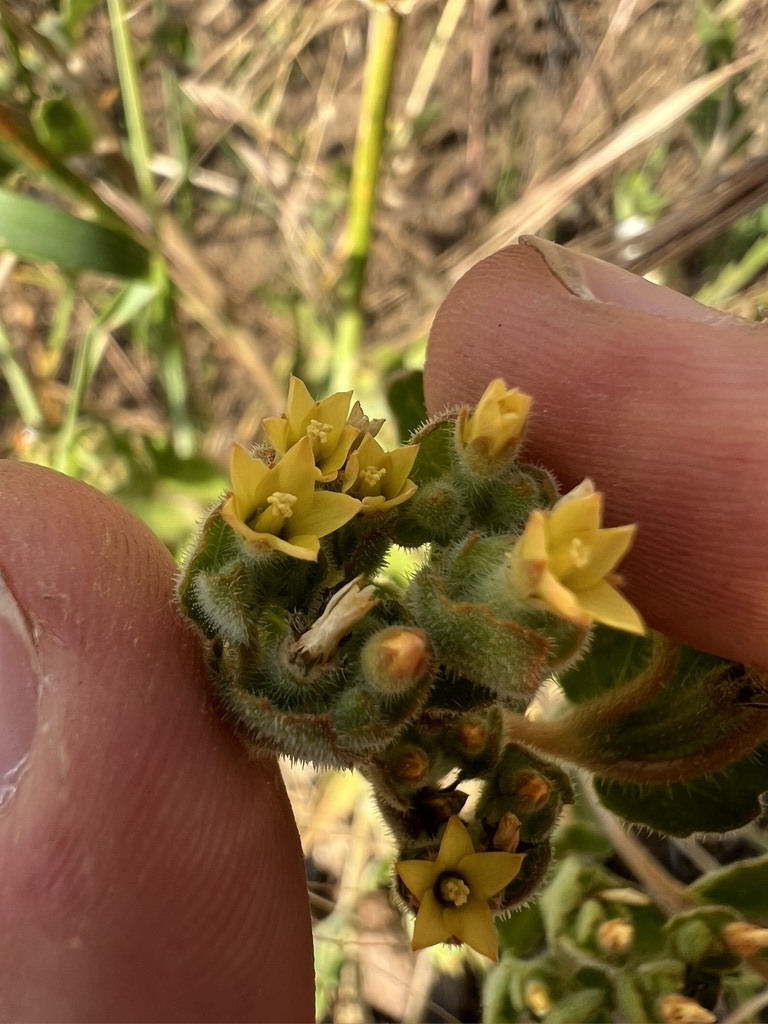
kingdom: Plantae
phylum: Tracheophyta
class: Magnoliopsida
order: Cornales
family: Loasaceae
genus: Mentzelia
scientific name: Mentzelia micrantha
